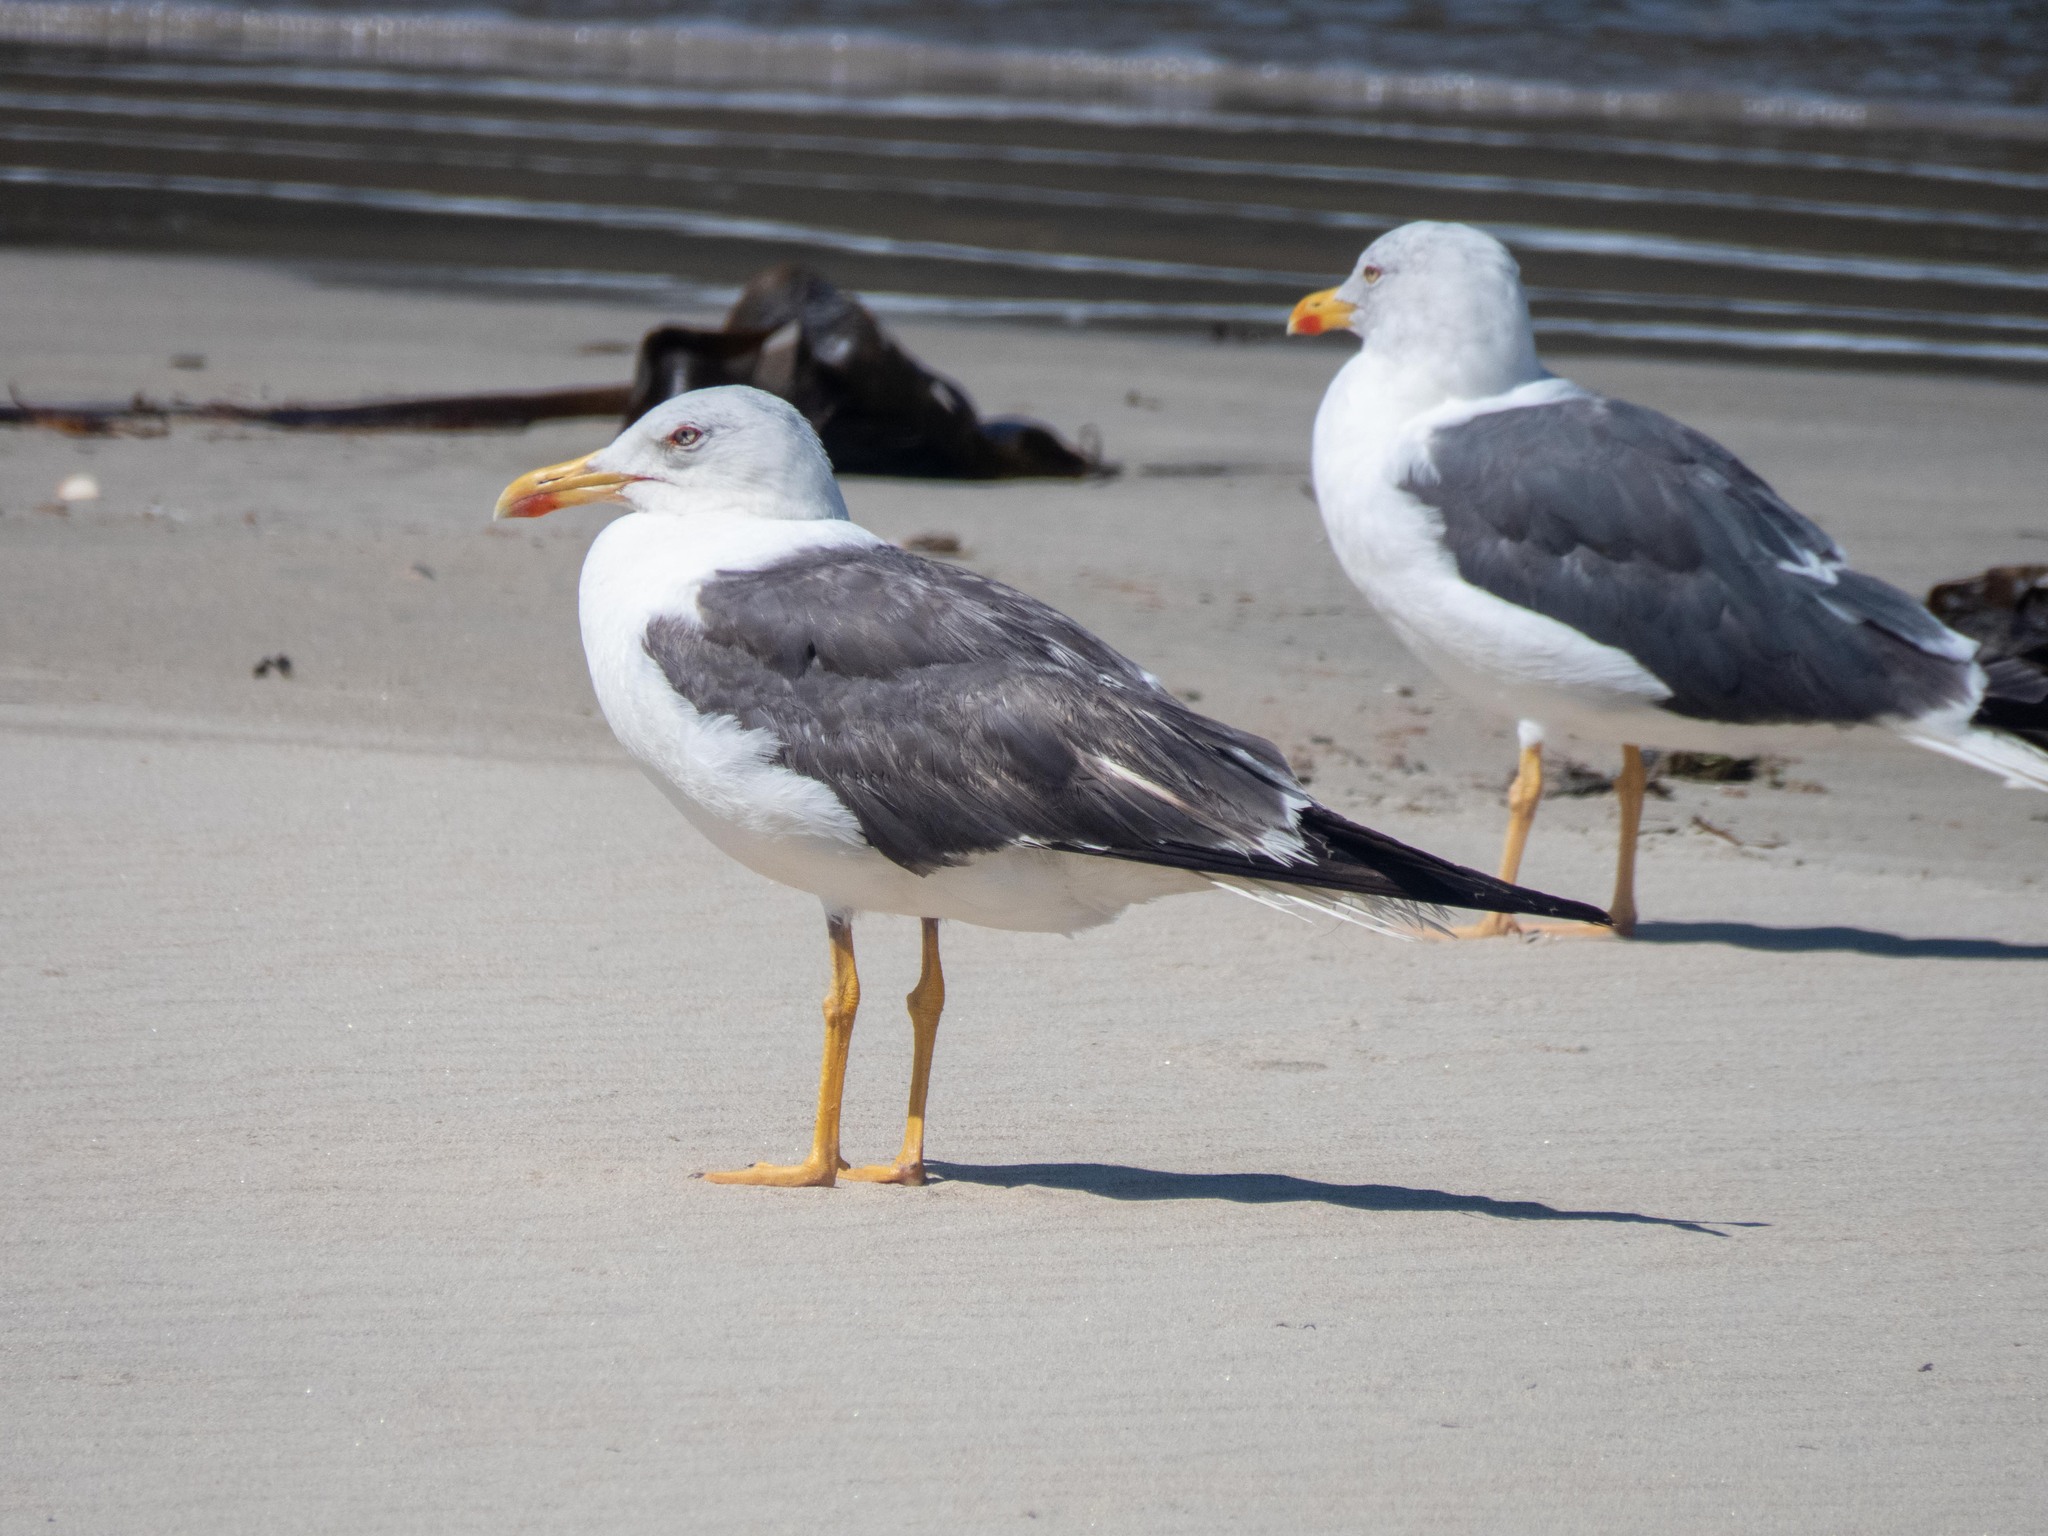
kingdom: Animalia
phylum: Chordata
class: Aves
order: Charadriiformes
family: Laridae
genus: Larus
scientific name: Larus fuscus
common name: Lesser black-backed gull
